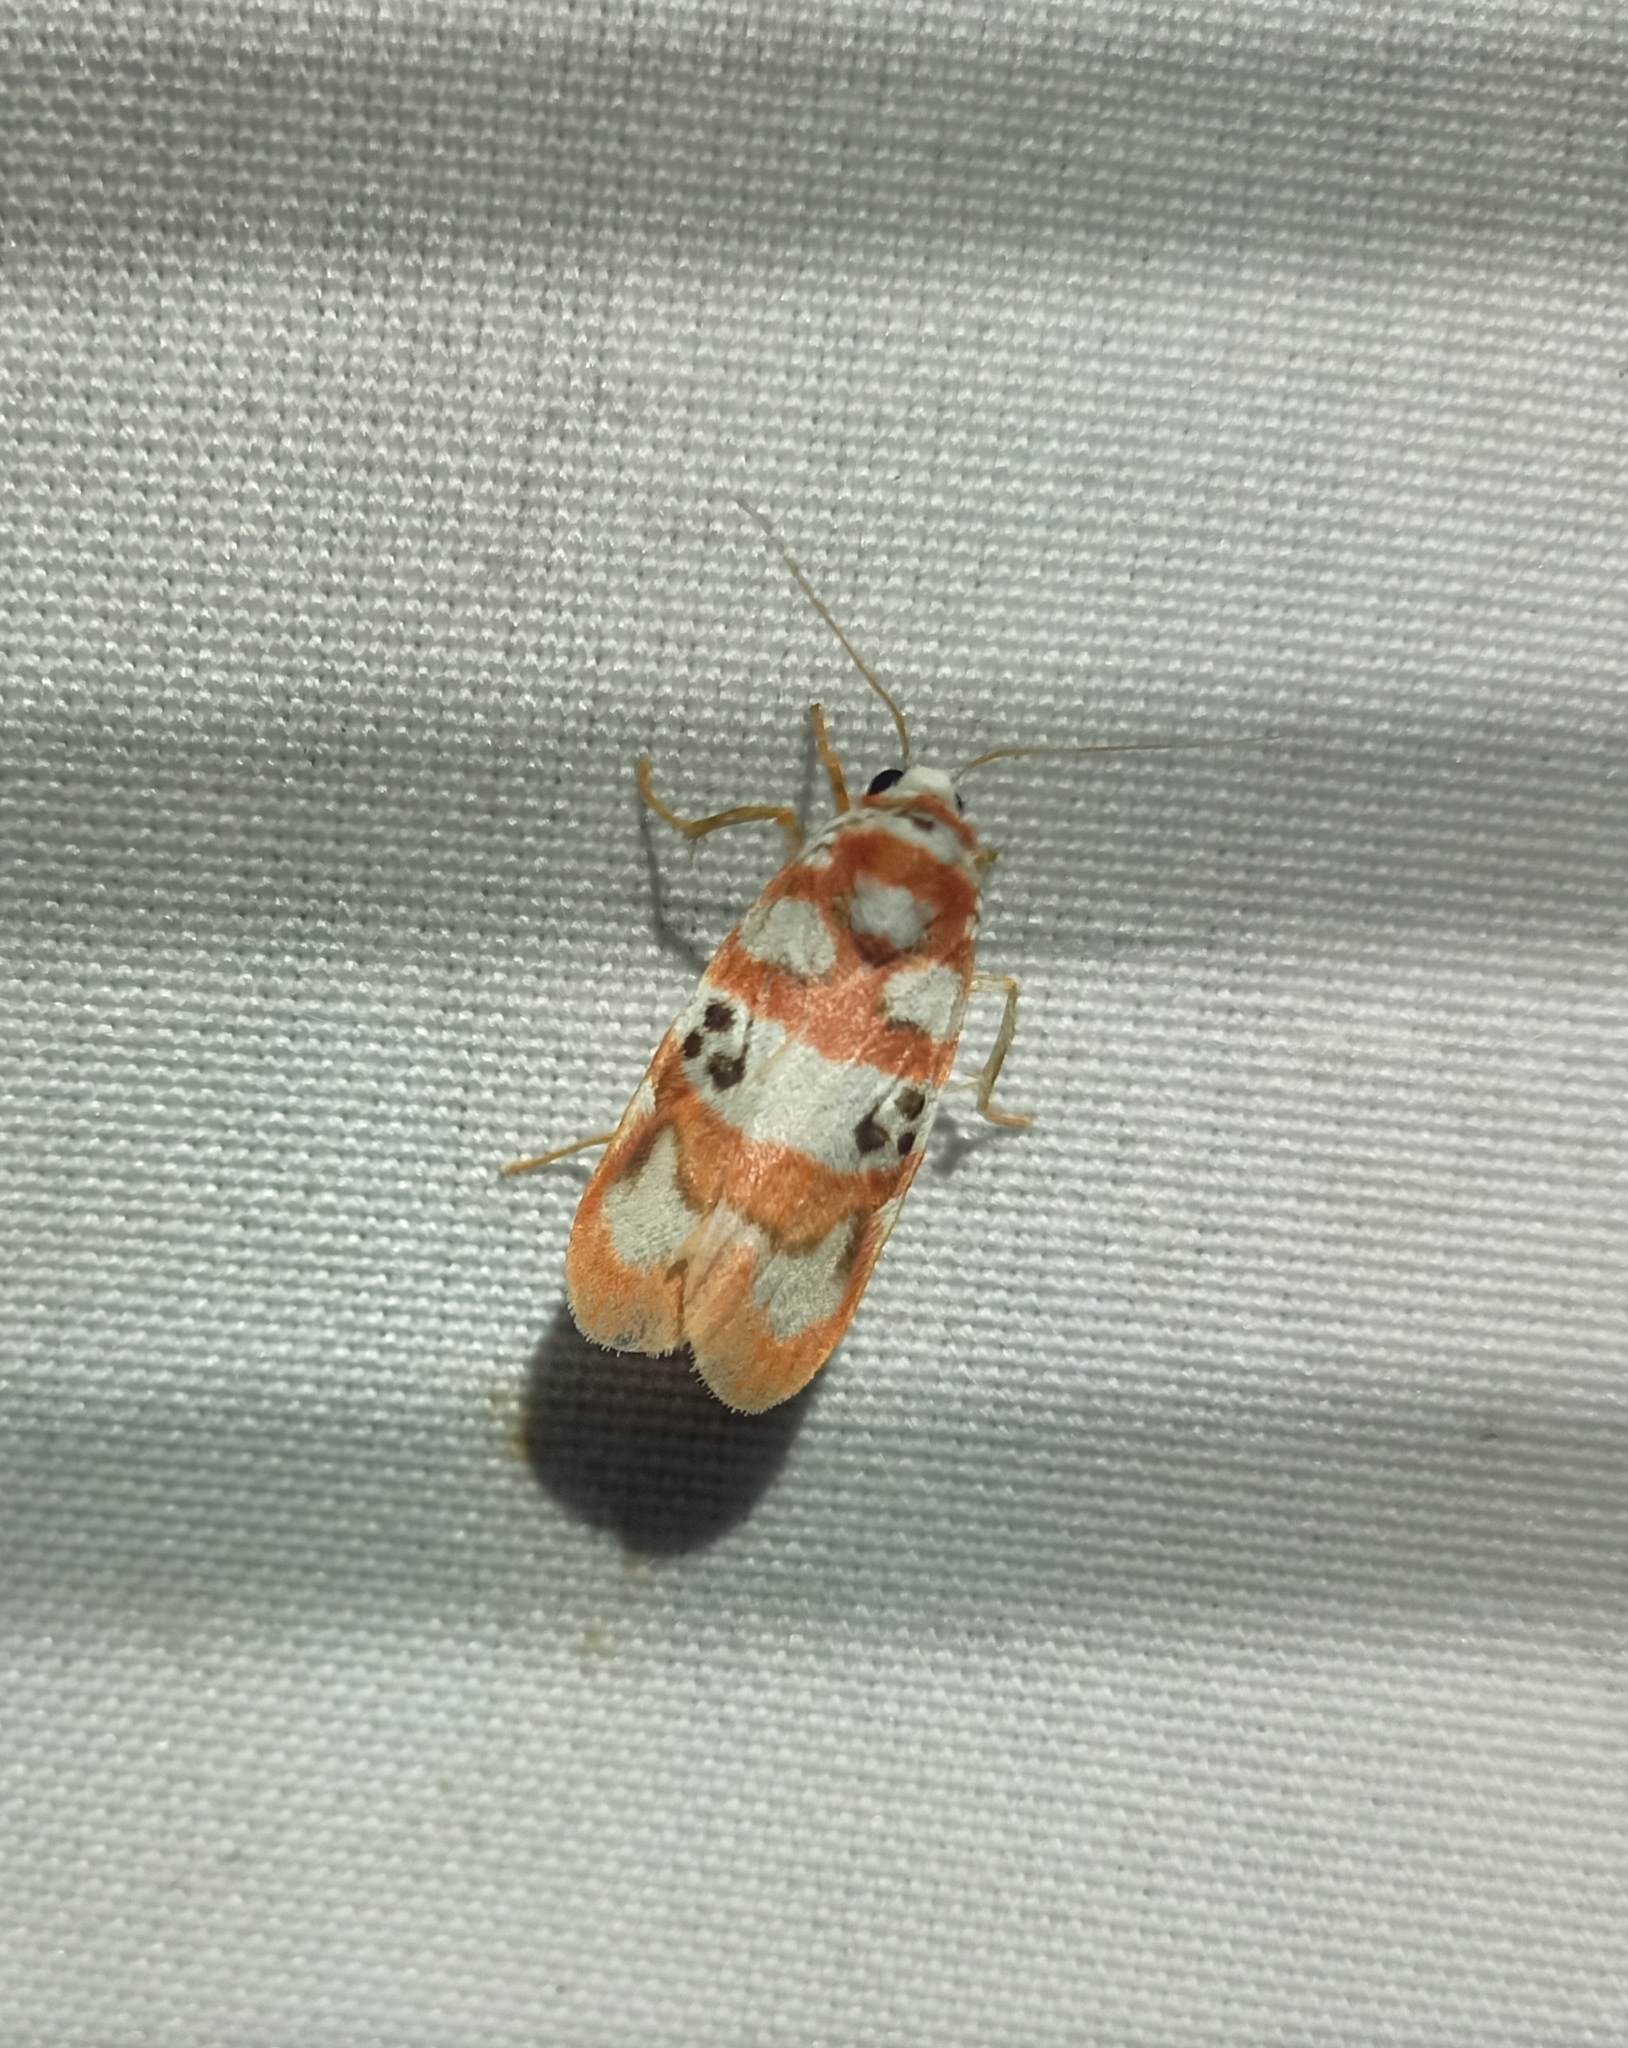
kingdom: Animalia
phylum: Arthropoda
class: Insecta
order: Lepidoptera
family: Erebidae
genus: Cyana
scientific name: Cyana bhatejai
